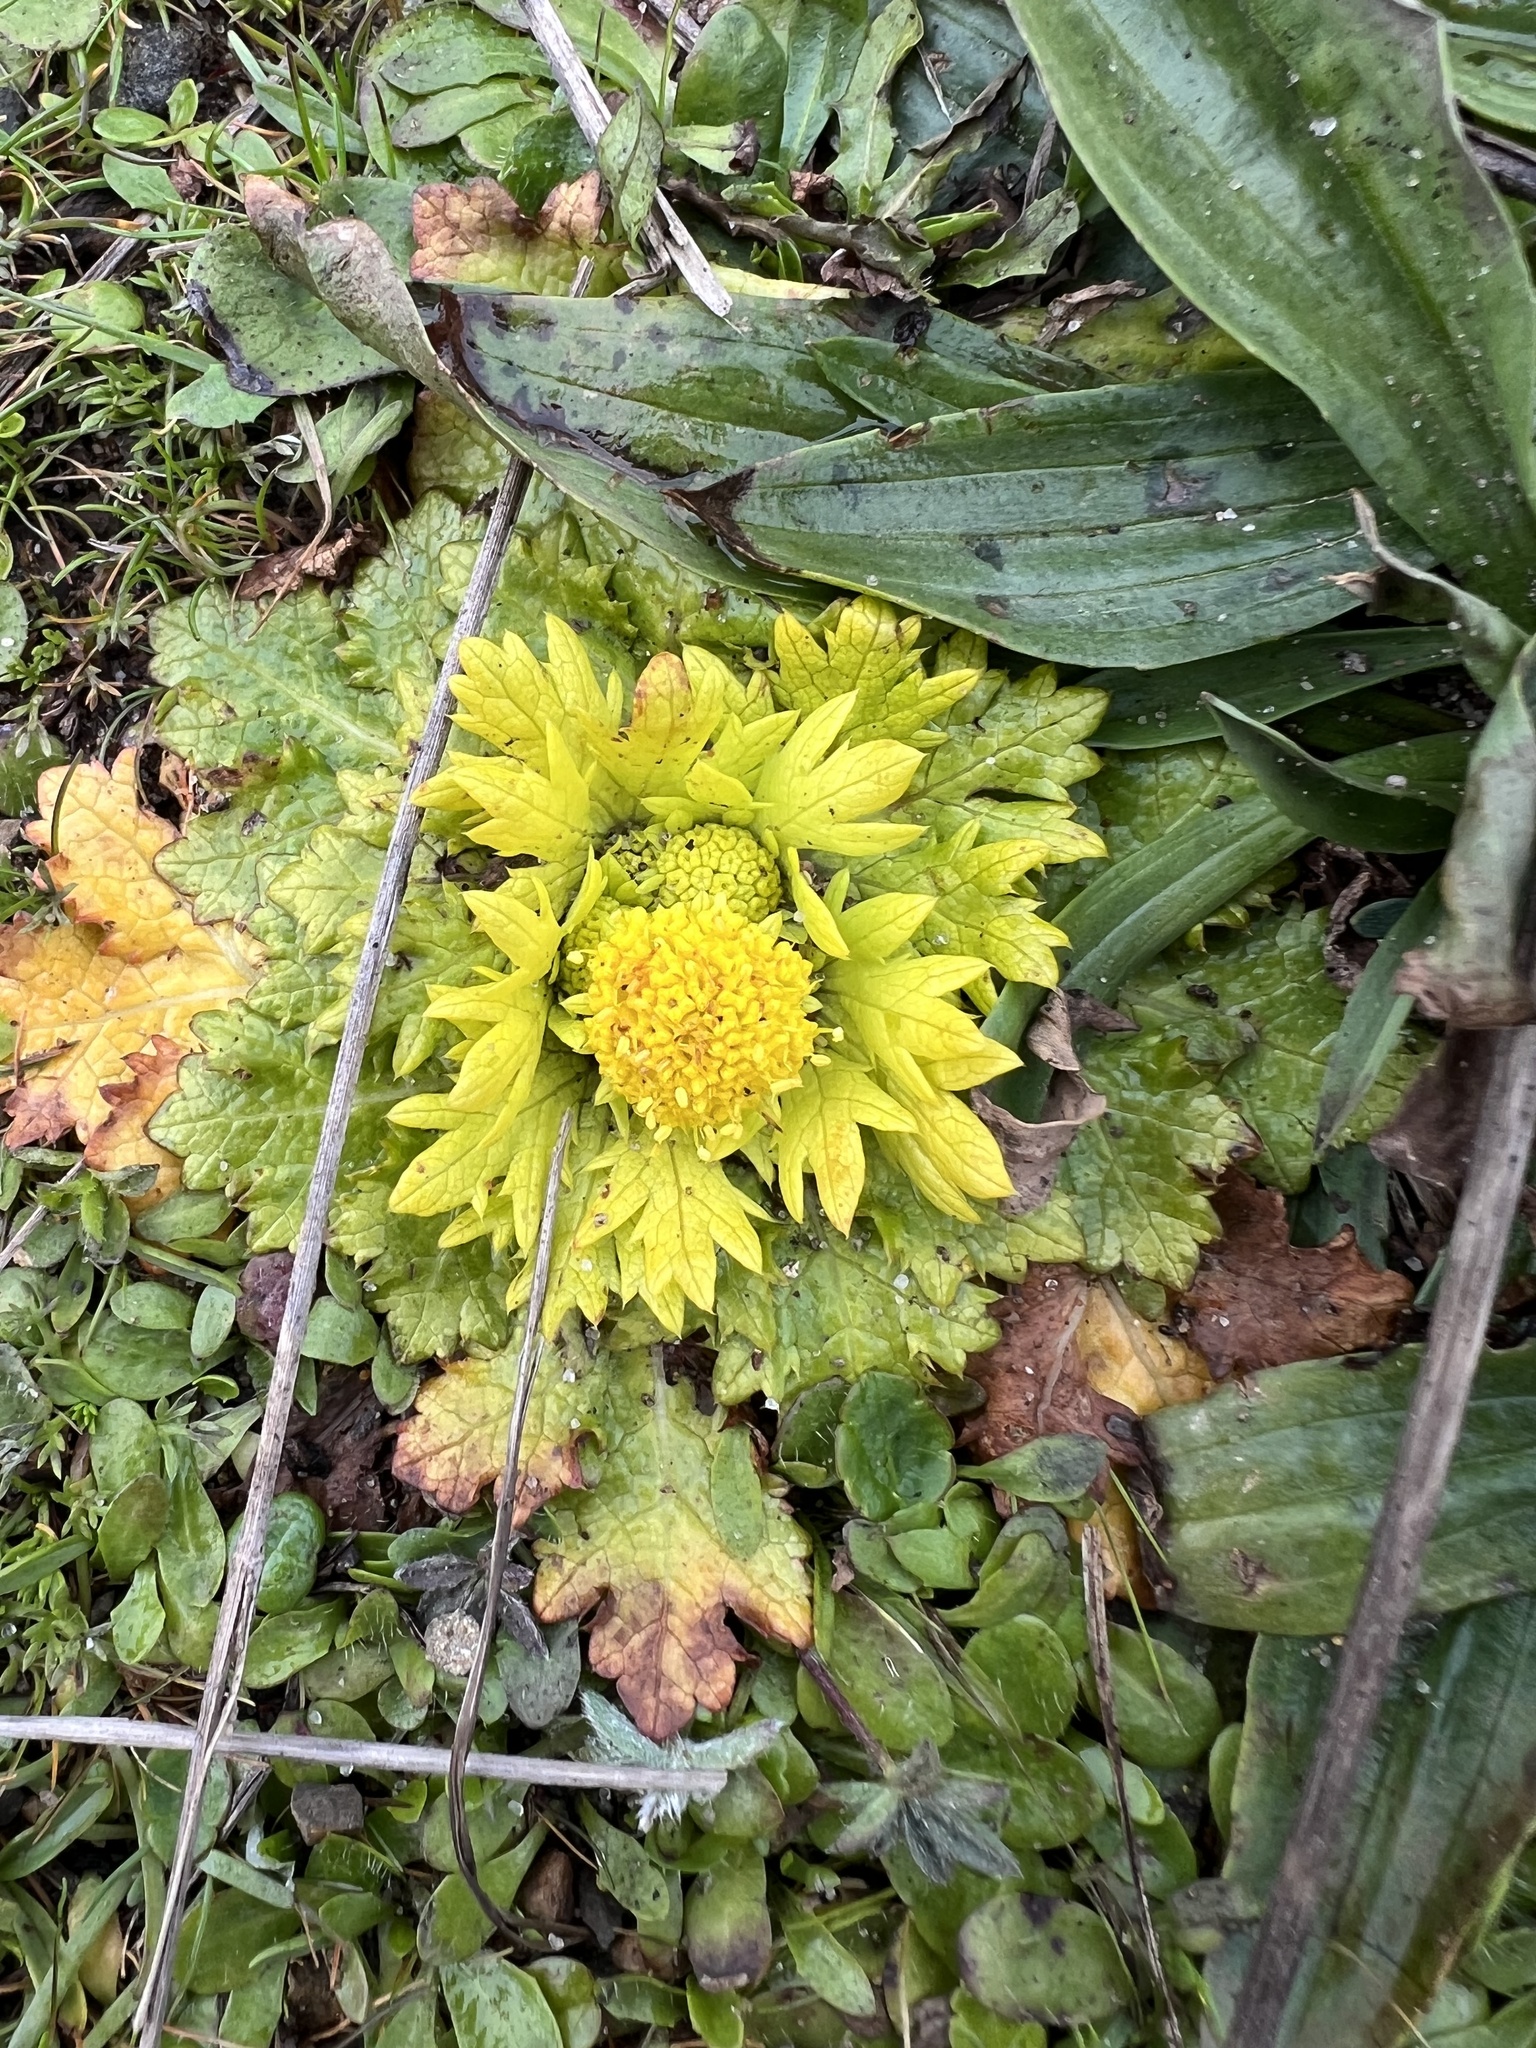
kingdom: Plantae
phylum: Tracheophyta
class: Magnoliopsida
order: Apiales
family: Apiaceae
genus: Sanicula
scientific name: Sanicula arctopoides
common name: Footsteps-of-spring
